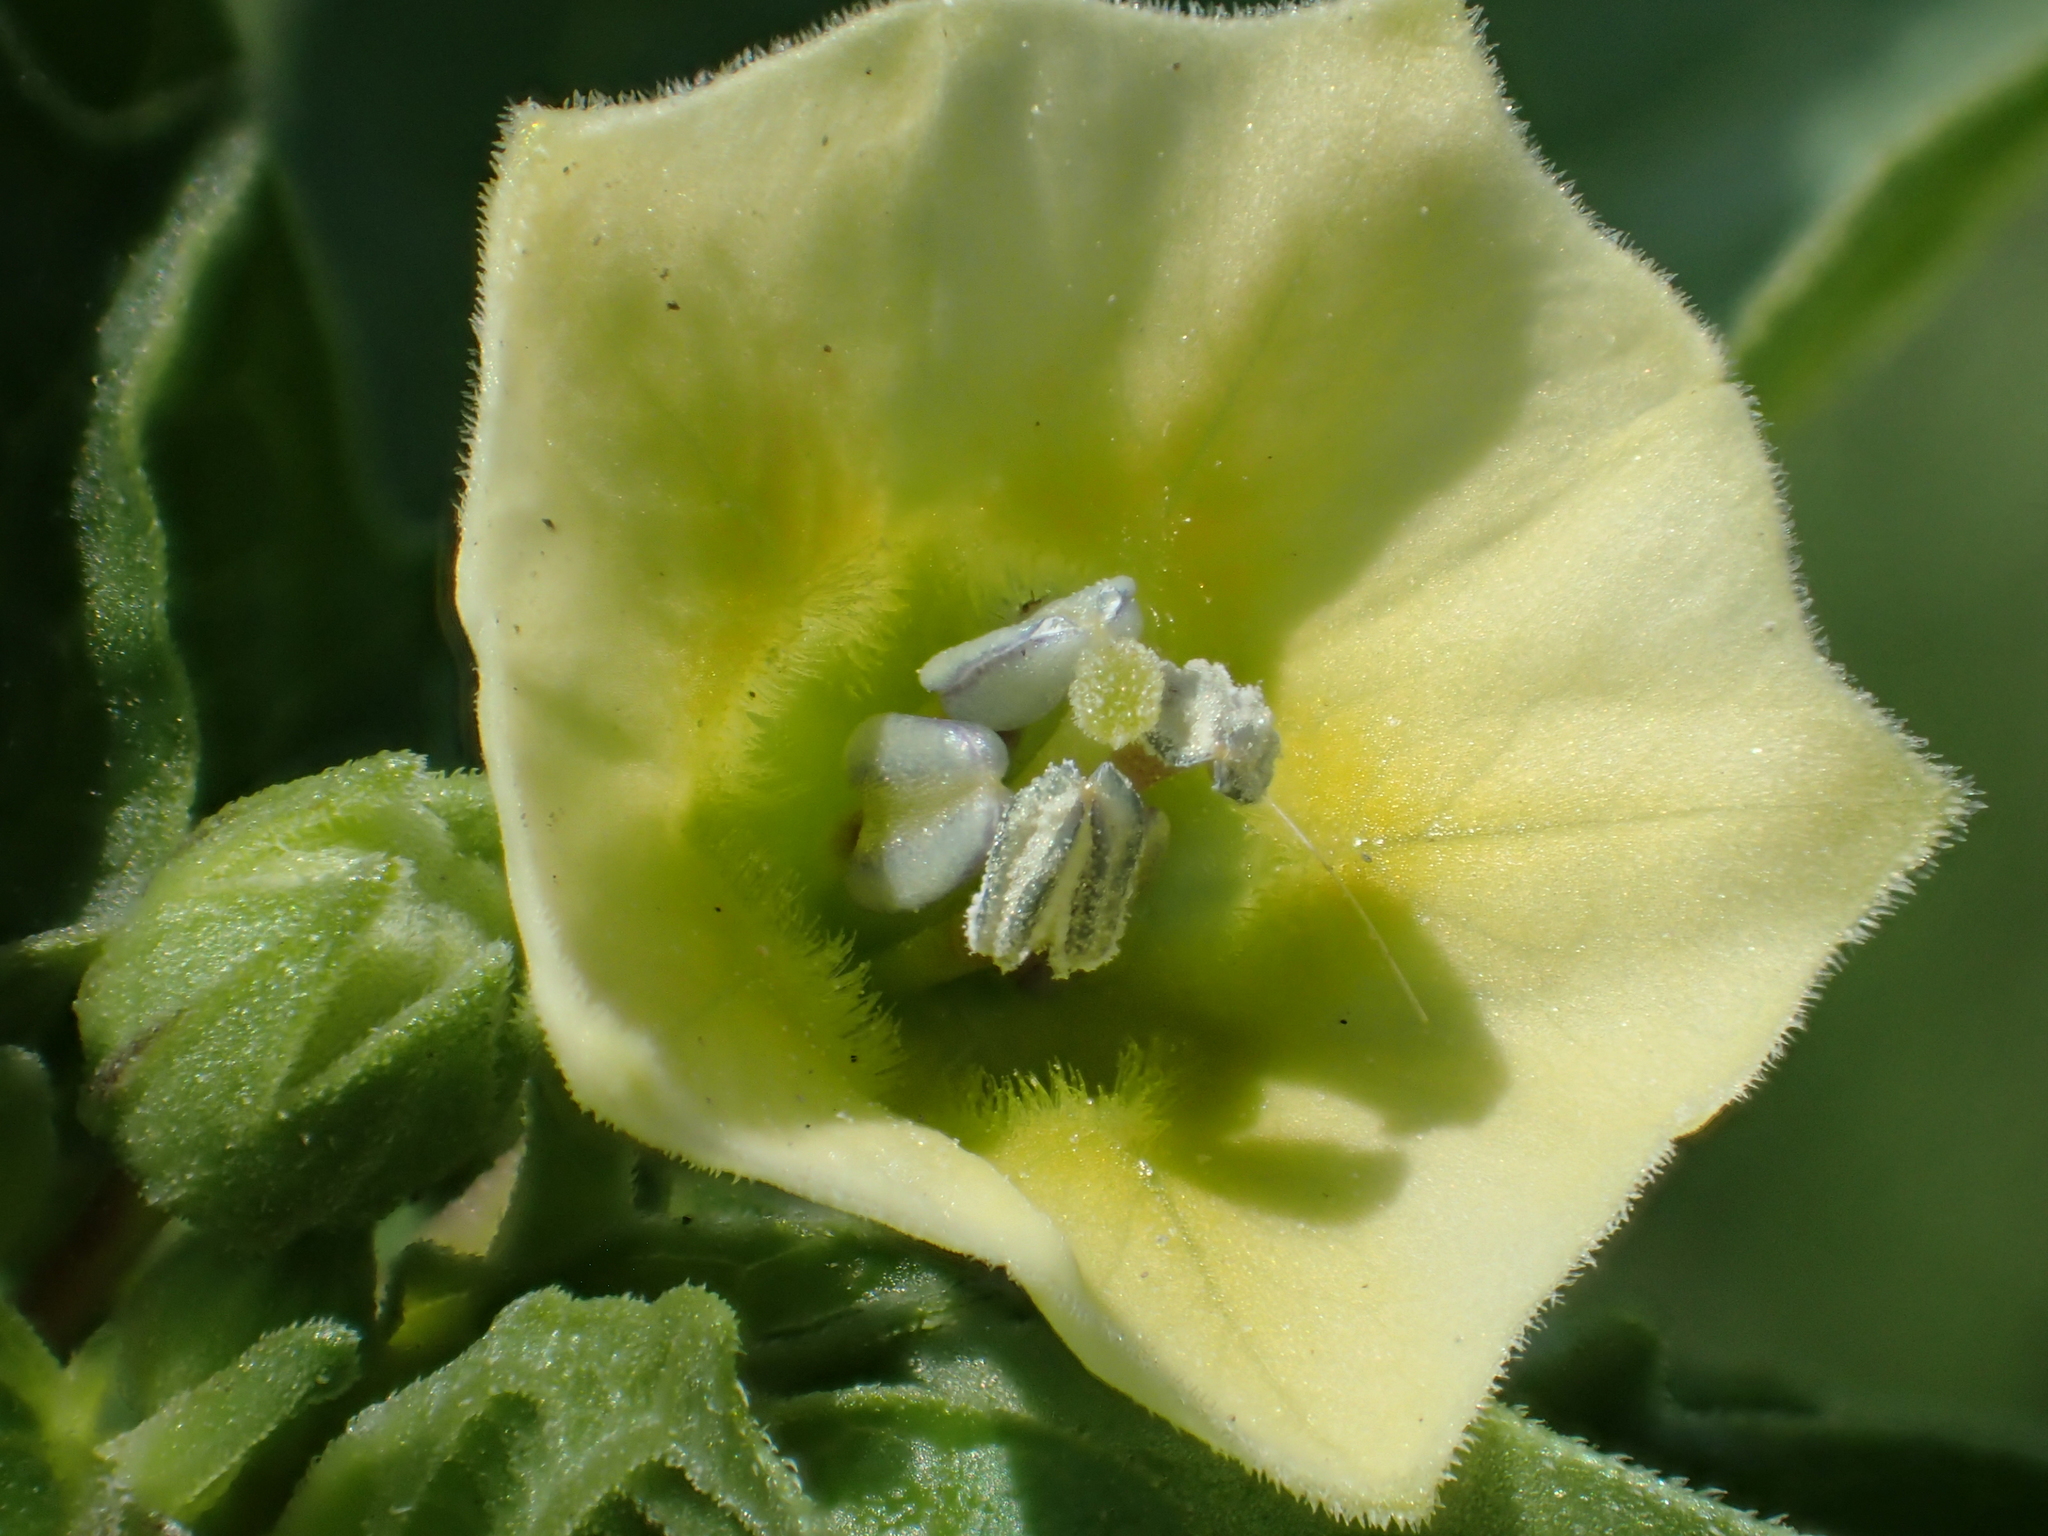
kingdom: Plantae
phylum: Tracheophyta
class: Magnoliopsida
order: Solanales
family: Solanaceae
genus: Physalis
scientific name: Physalis angulata
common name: Angular winter-cherry
